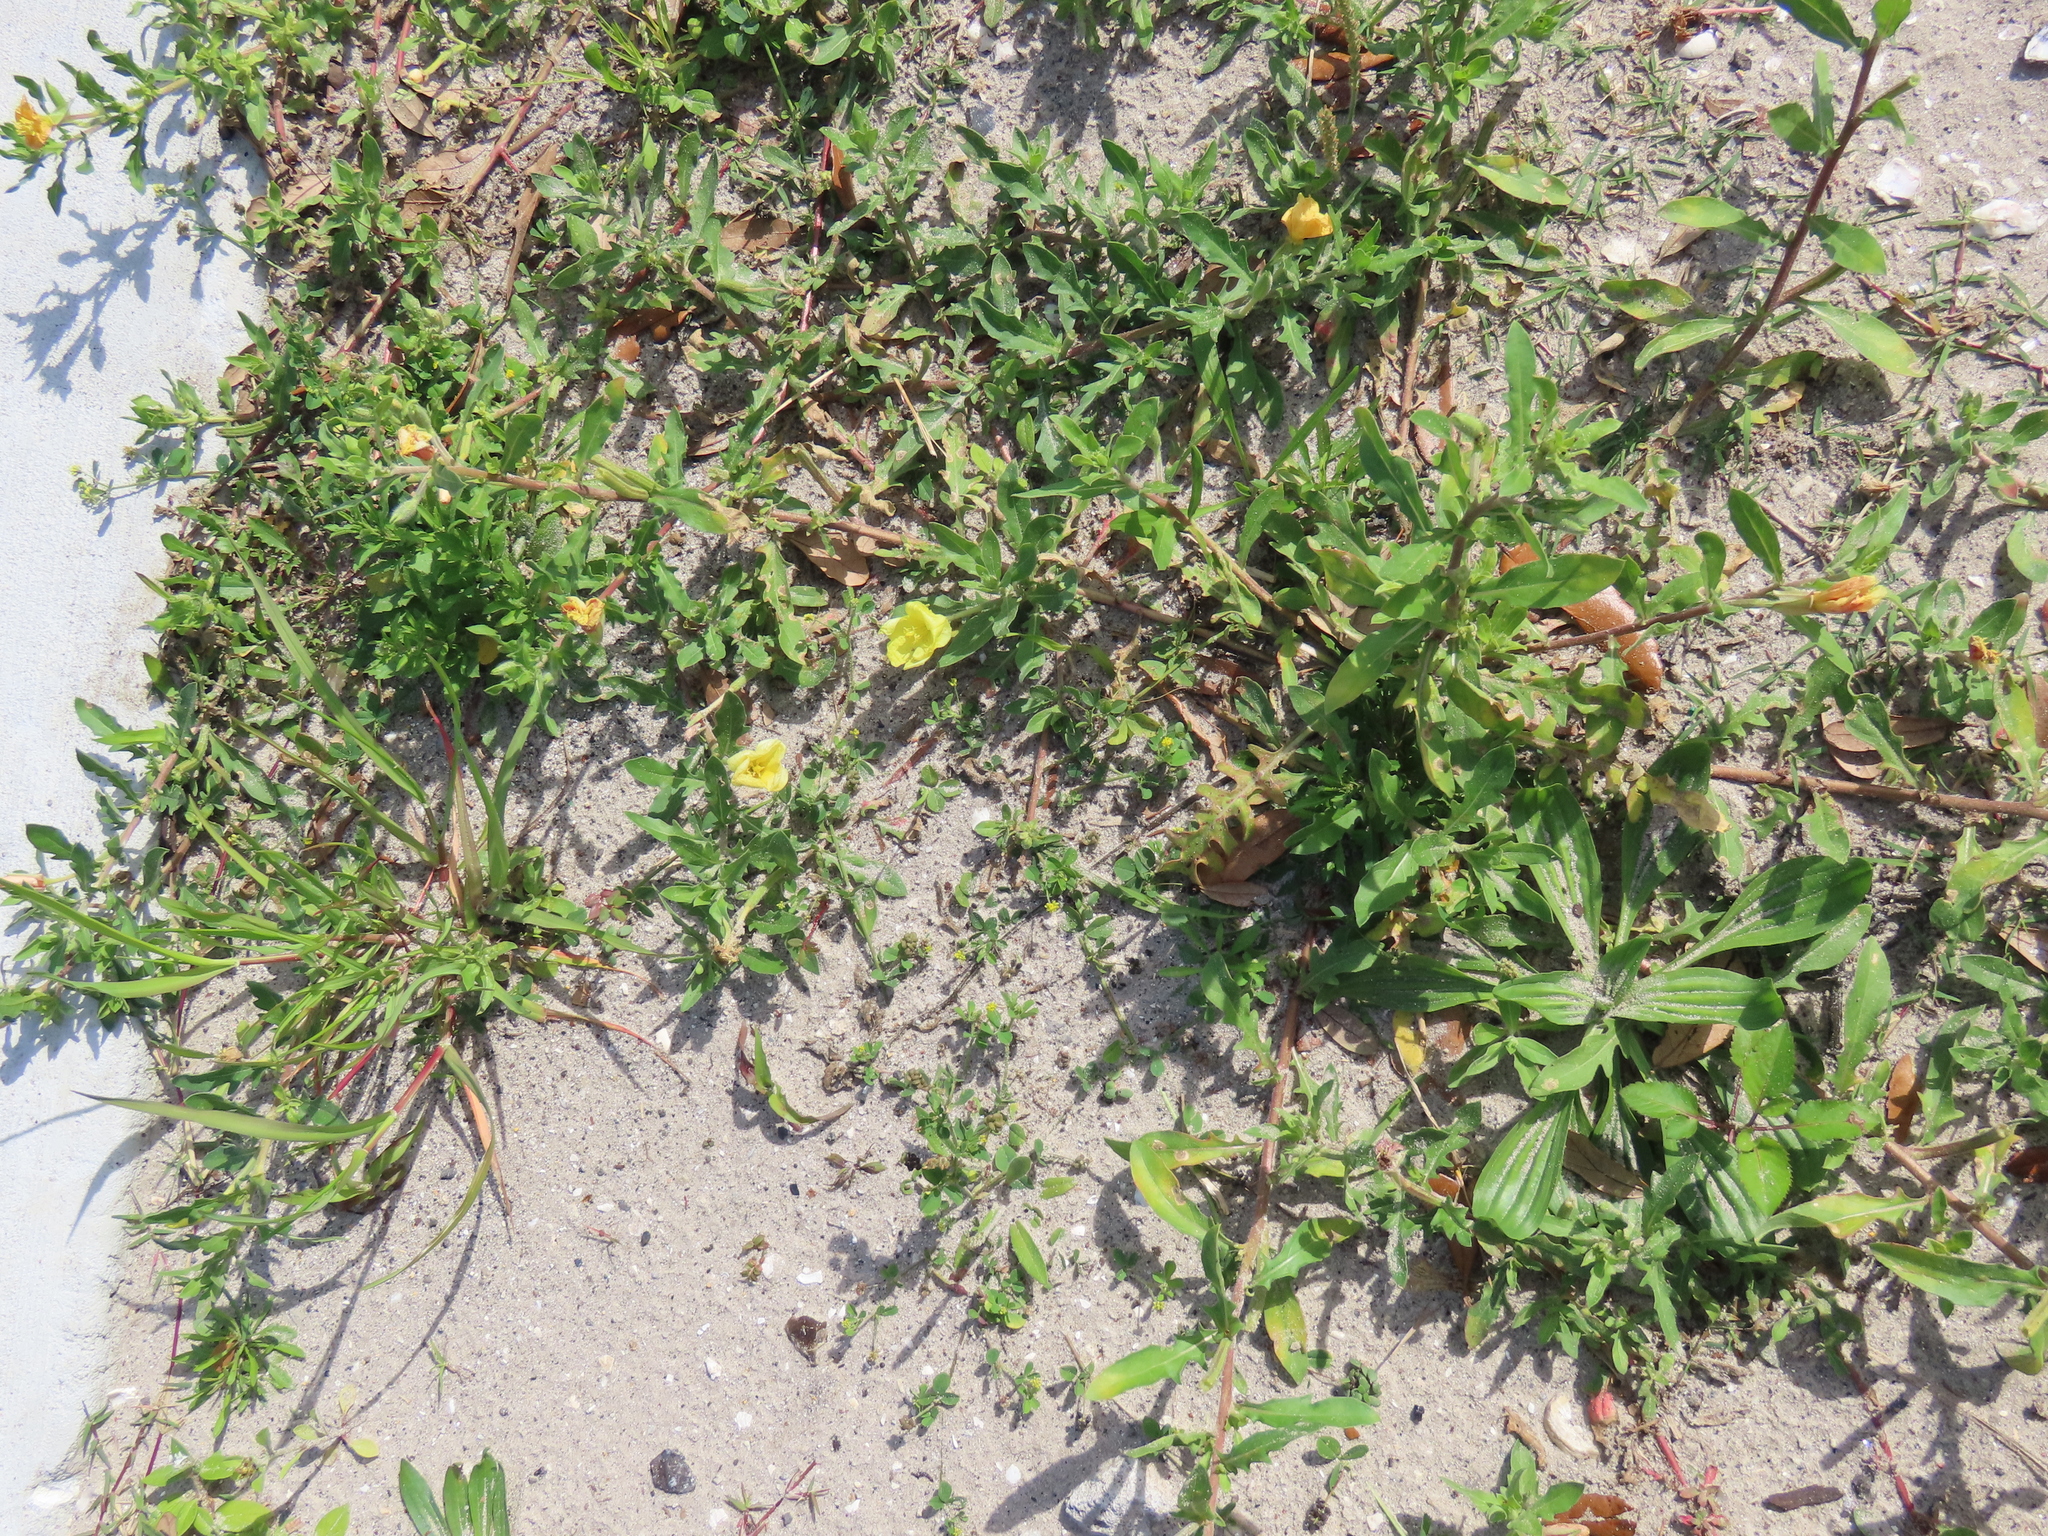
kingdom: Plantae
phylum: Tracheophyta
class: Magnoliopsida
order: Myrtales
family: Onagraceae
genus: Oenothera
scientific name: Oenothera laciniata
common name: Cut-leaved evening-primrose
